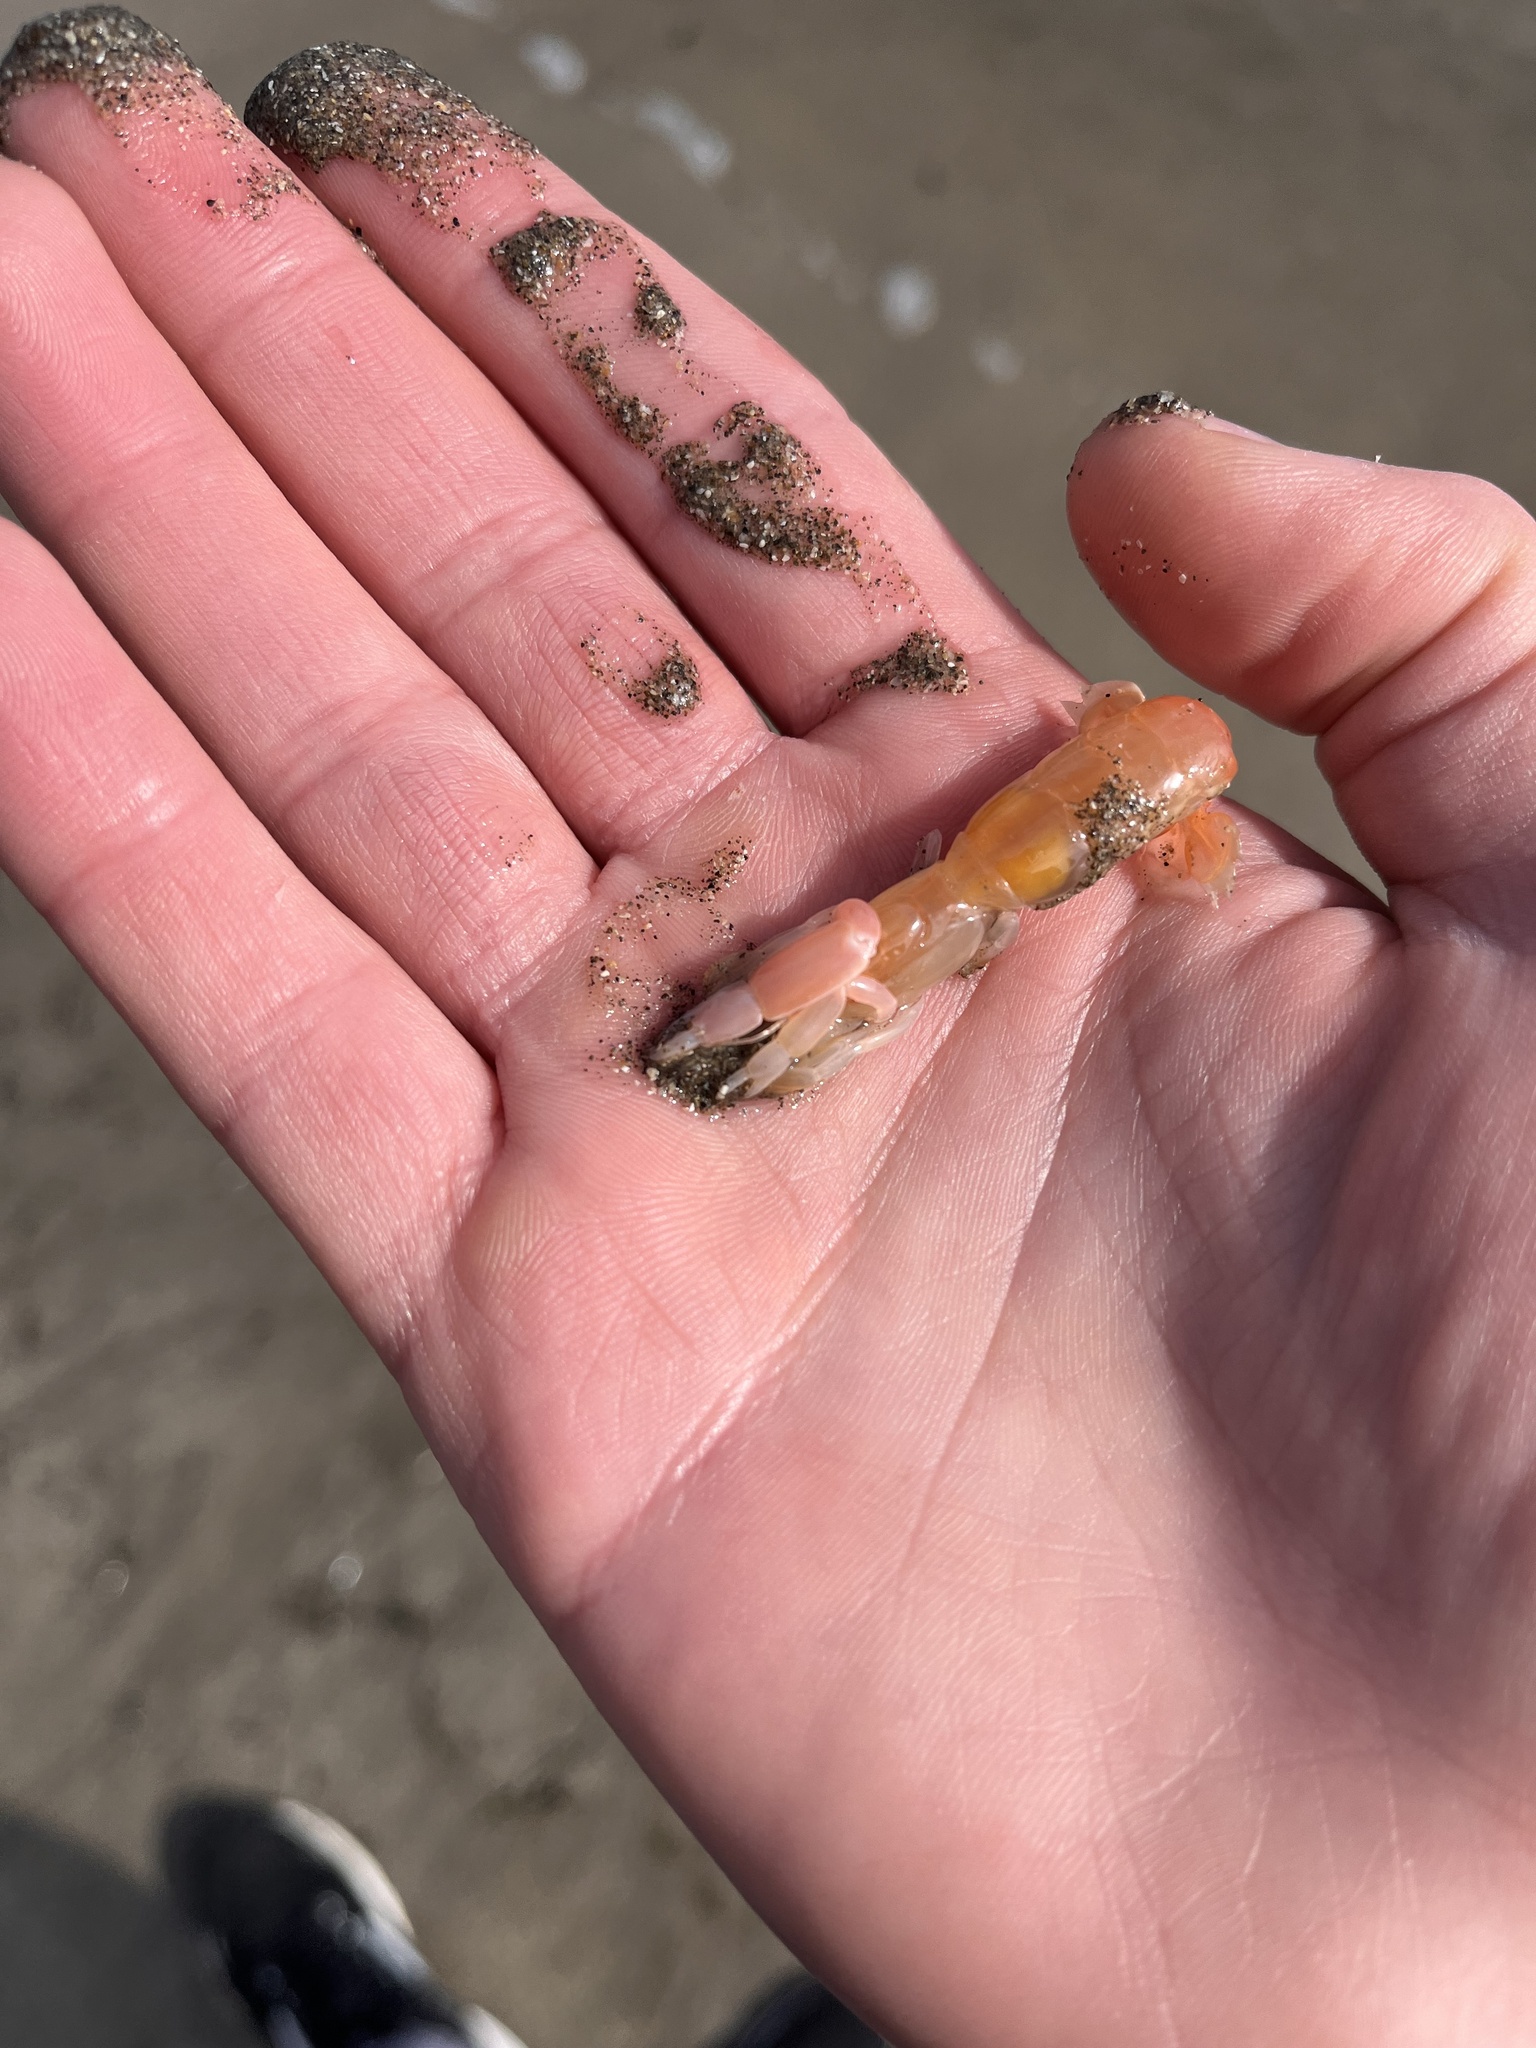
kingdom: Animalia
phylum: Arthropoda
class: Malacostraca
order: Decapoda
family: Callianassidae
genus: Neotrypaea
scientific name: Neotrypaea californiensis
